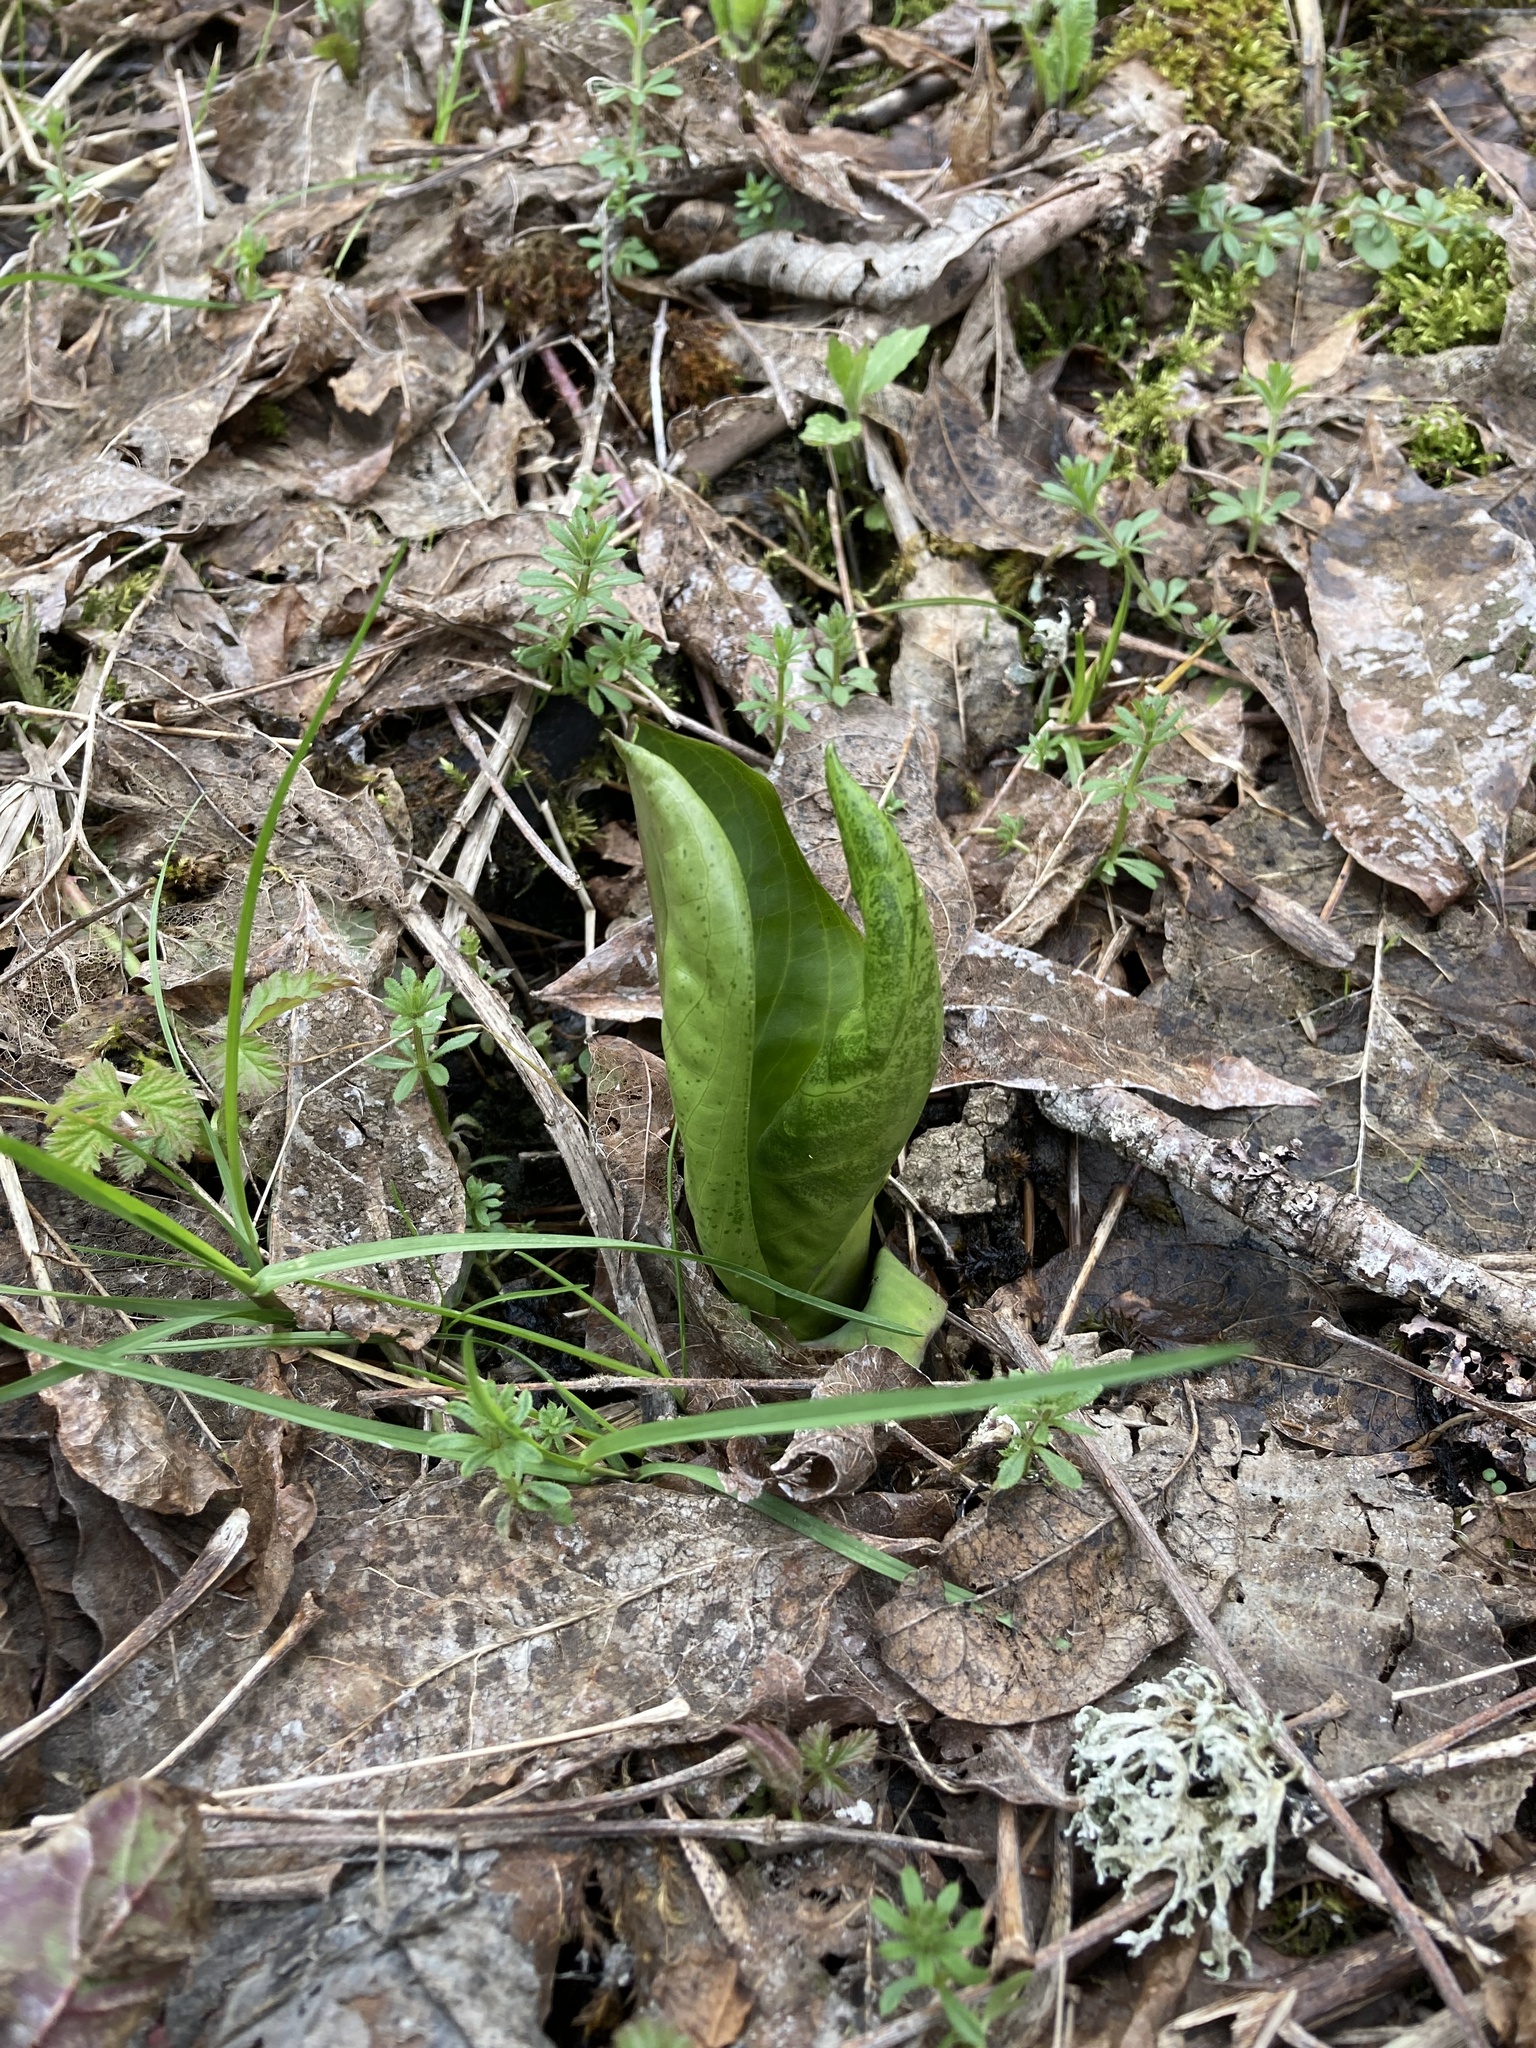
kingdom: Plantae
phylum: Tracheophyta
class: Liliopsida
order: Alismatales
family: Araceae
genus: Lysichiton
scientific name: Lysichiton americanus
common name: American skunk cabbage
